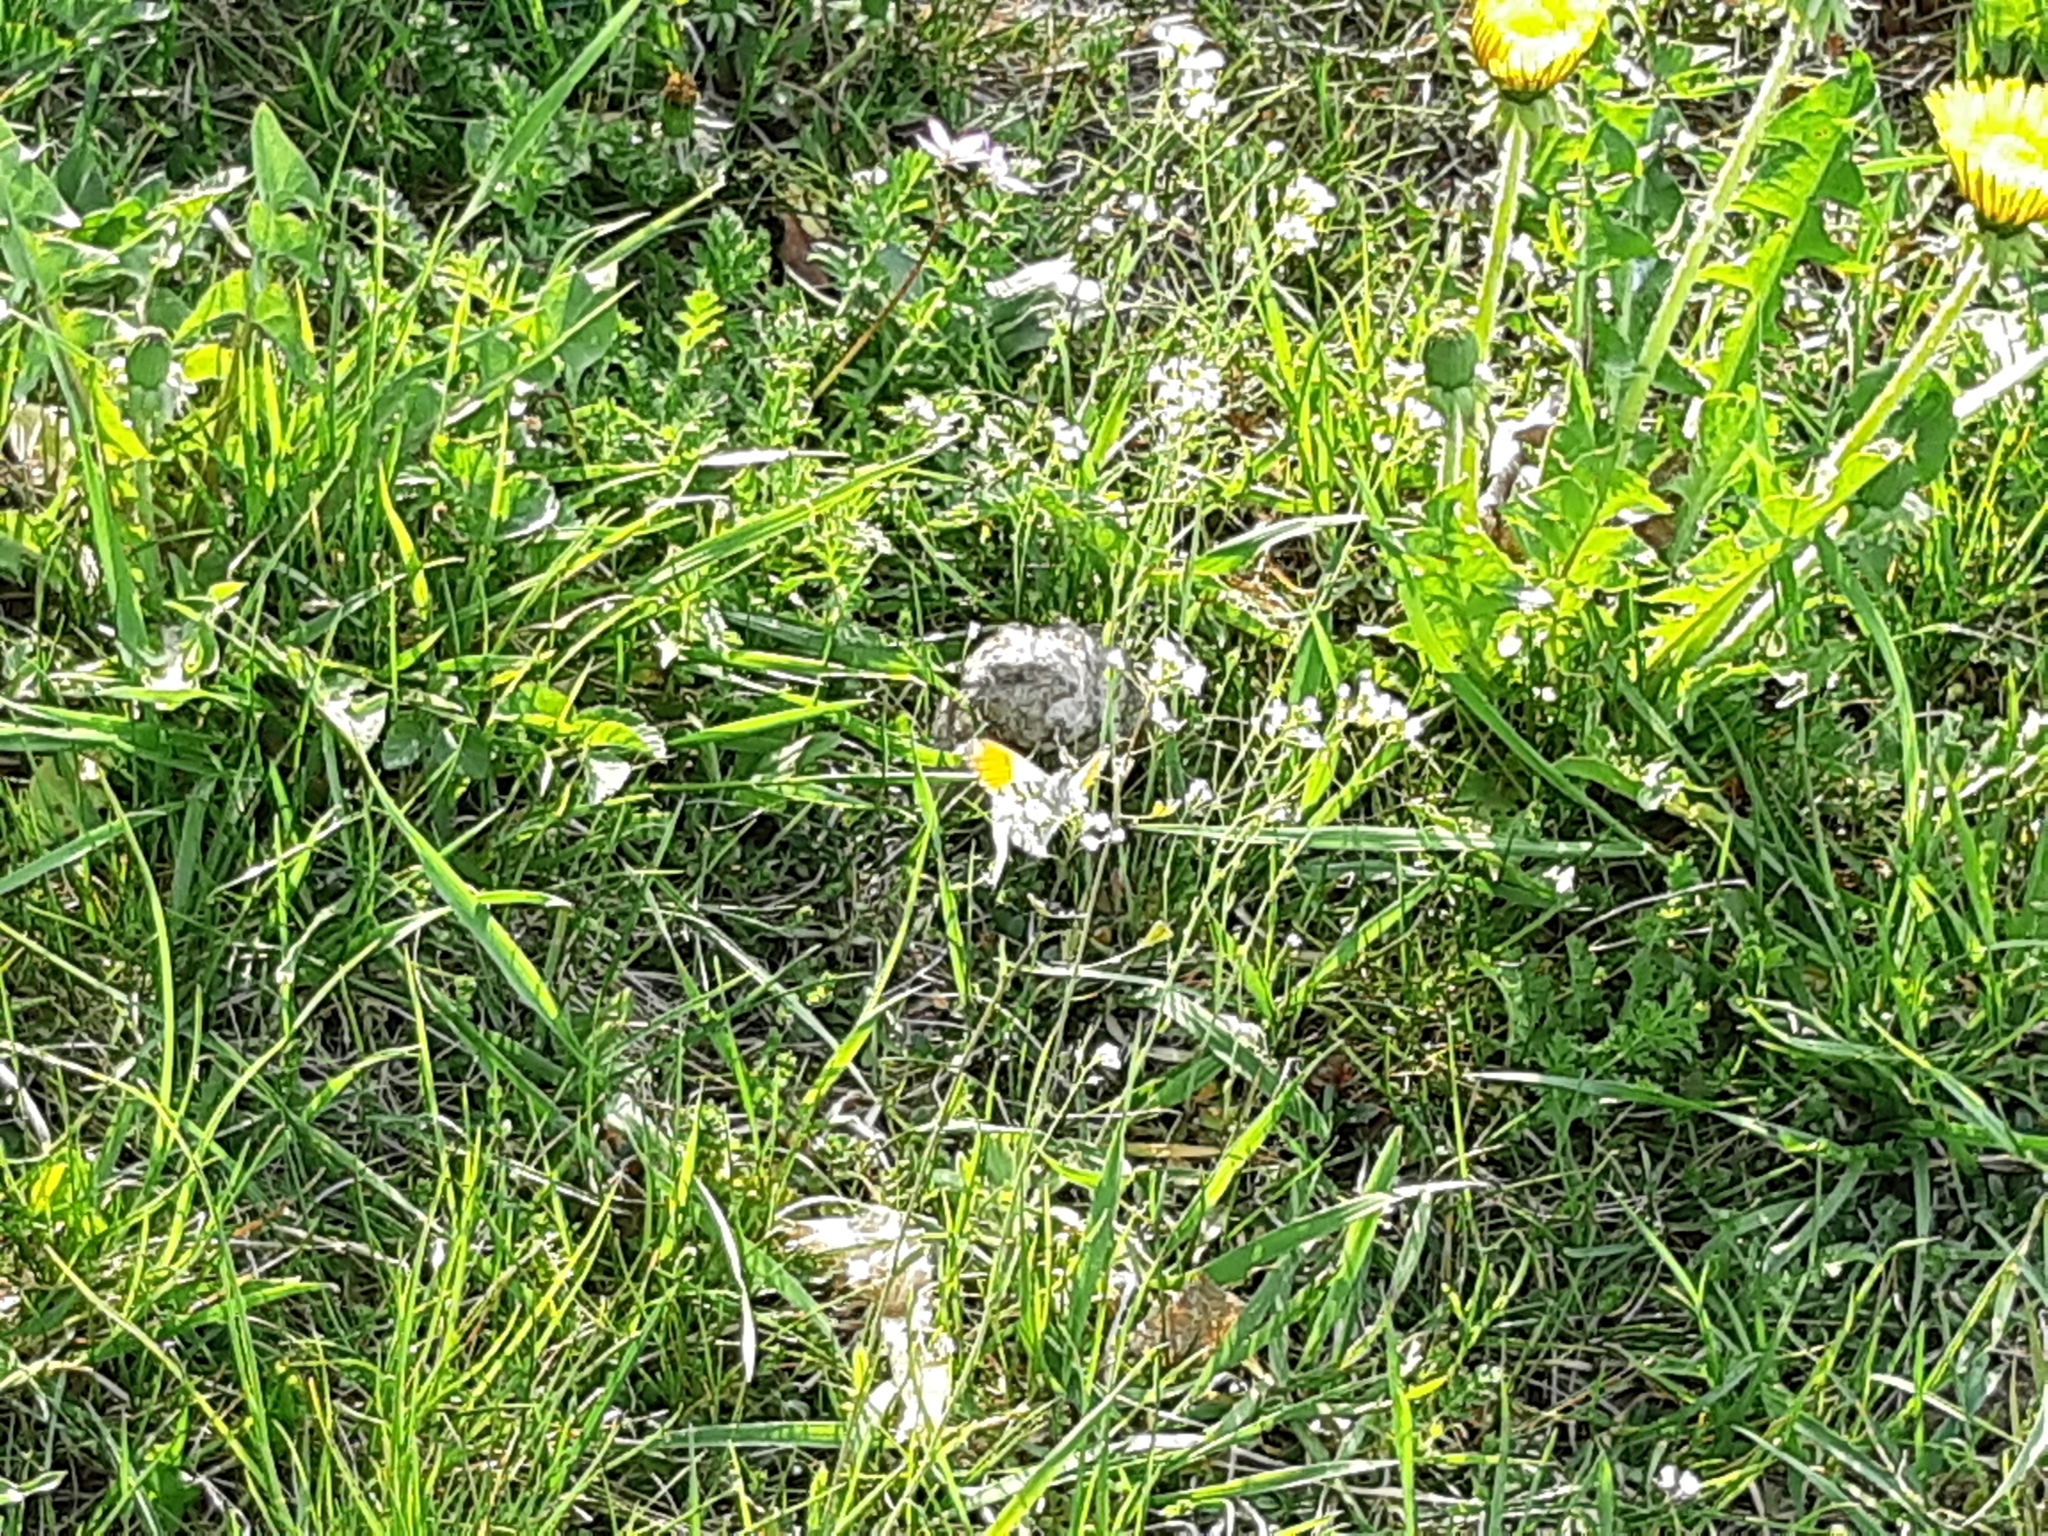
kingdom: Animalia
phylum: Arthropoda
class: Insecta
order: Lepidoptera
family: Pieridae
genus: Anthocharis
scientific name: Anthocharis cardamines
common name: Orange-tip
